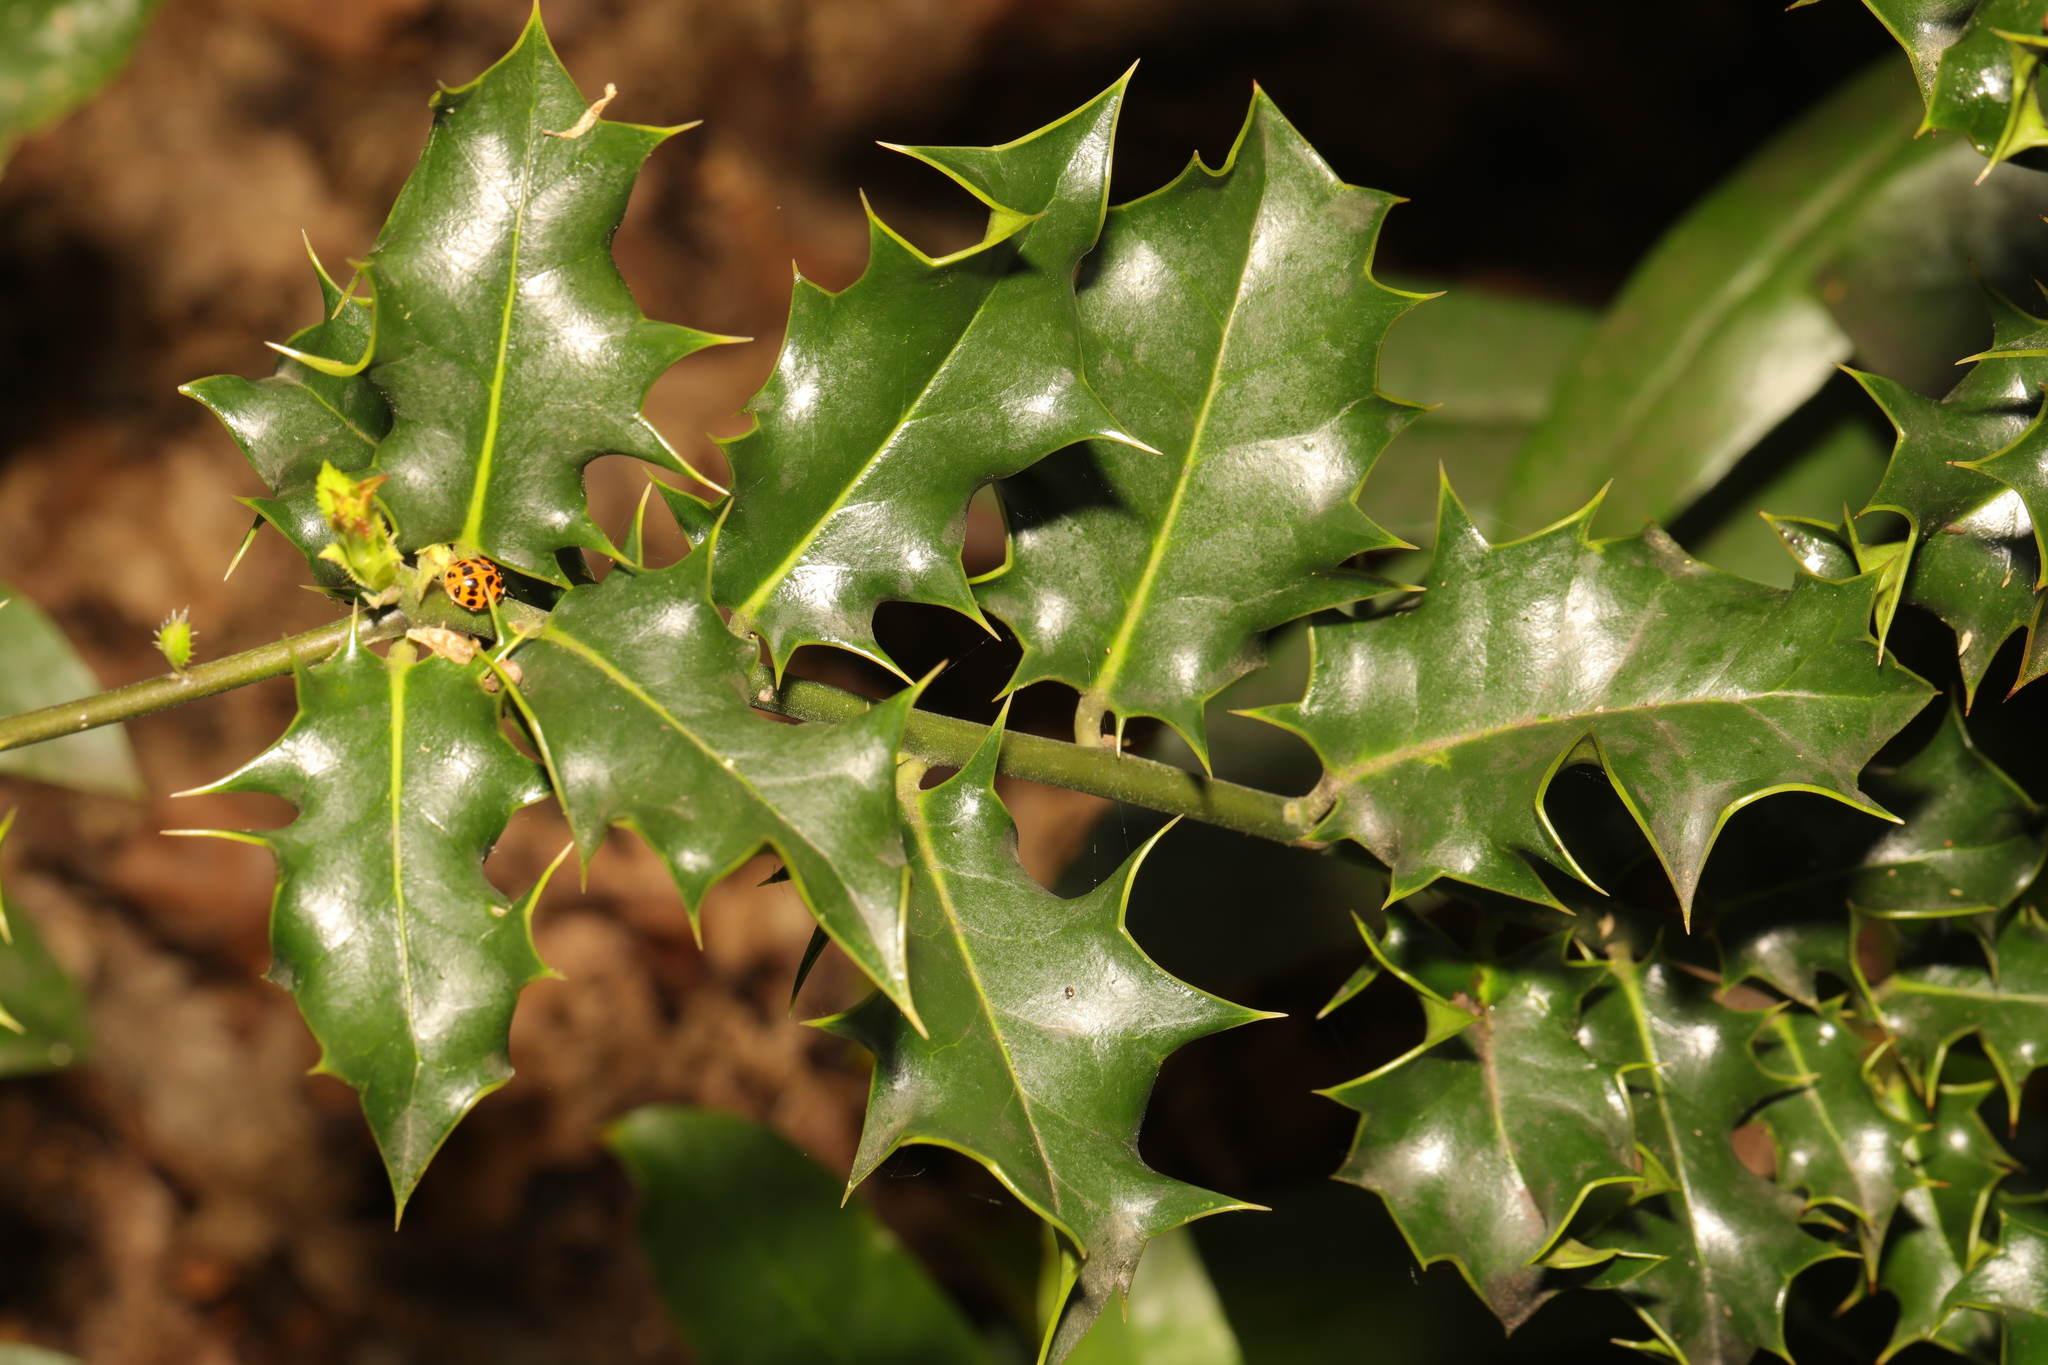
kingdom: Plantae
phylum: Tracheophyta
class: Magnoliopsida
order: Aquifoliales
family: Aquifoliaceae
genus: Ilex
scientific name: Ilex aquifolium
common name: English holly
